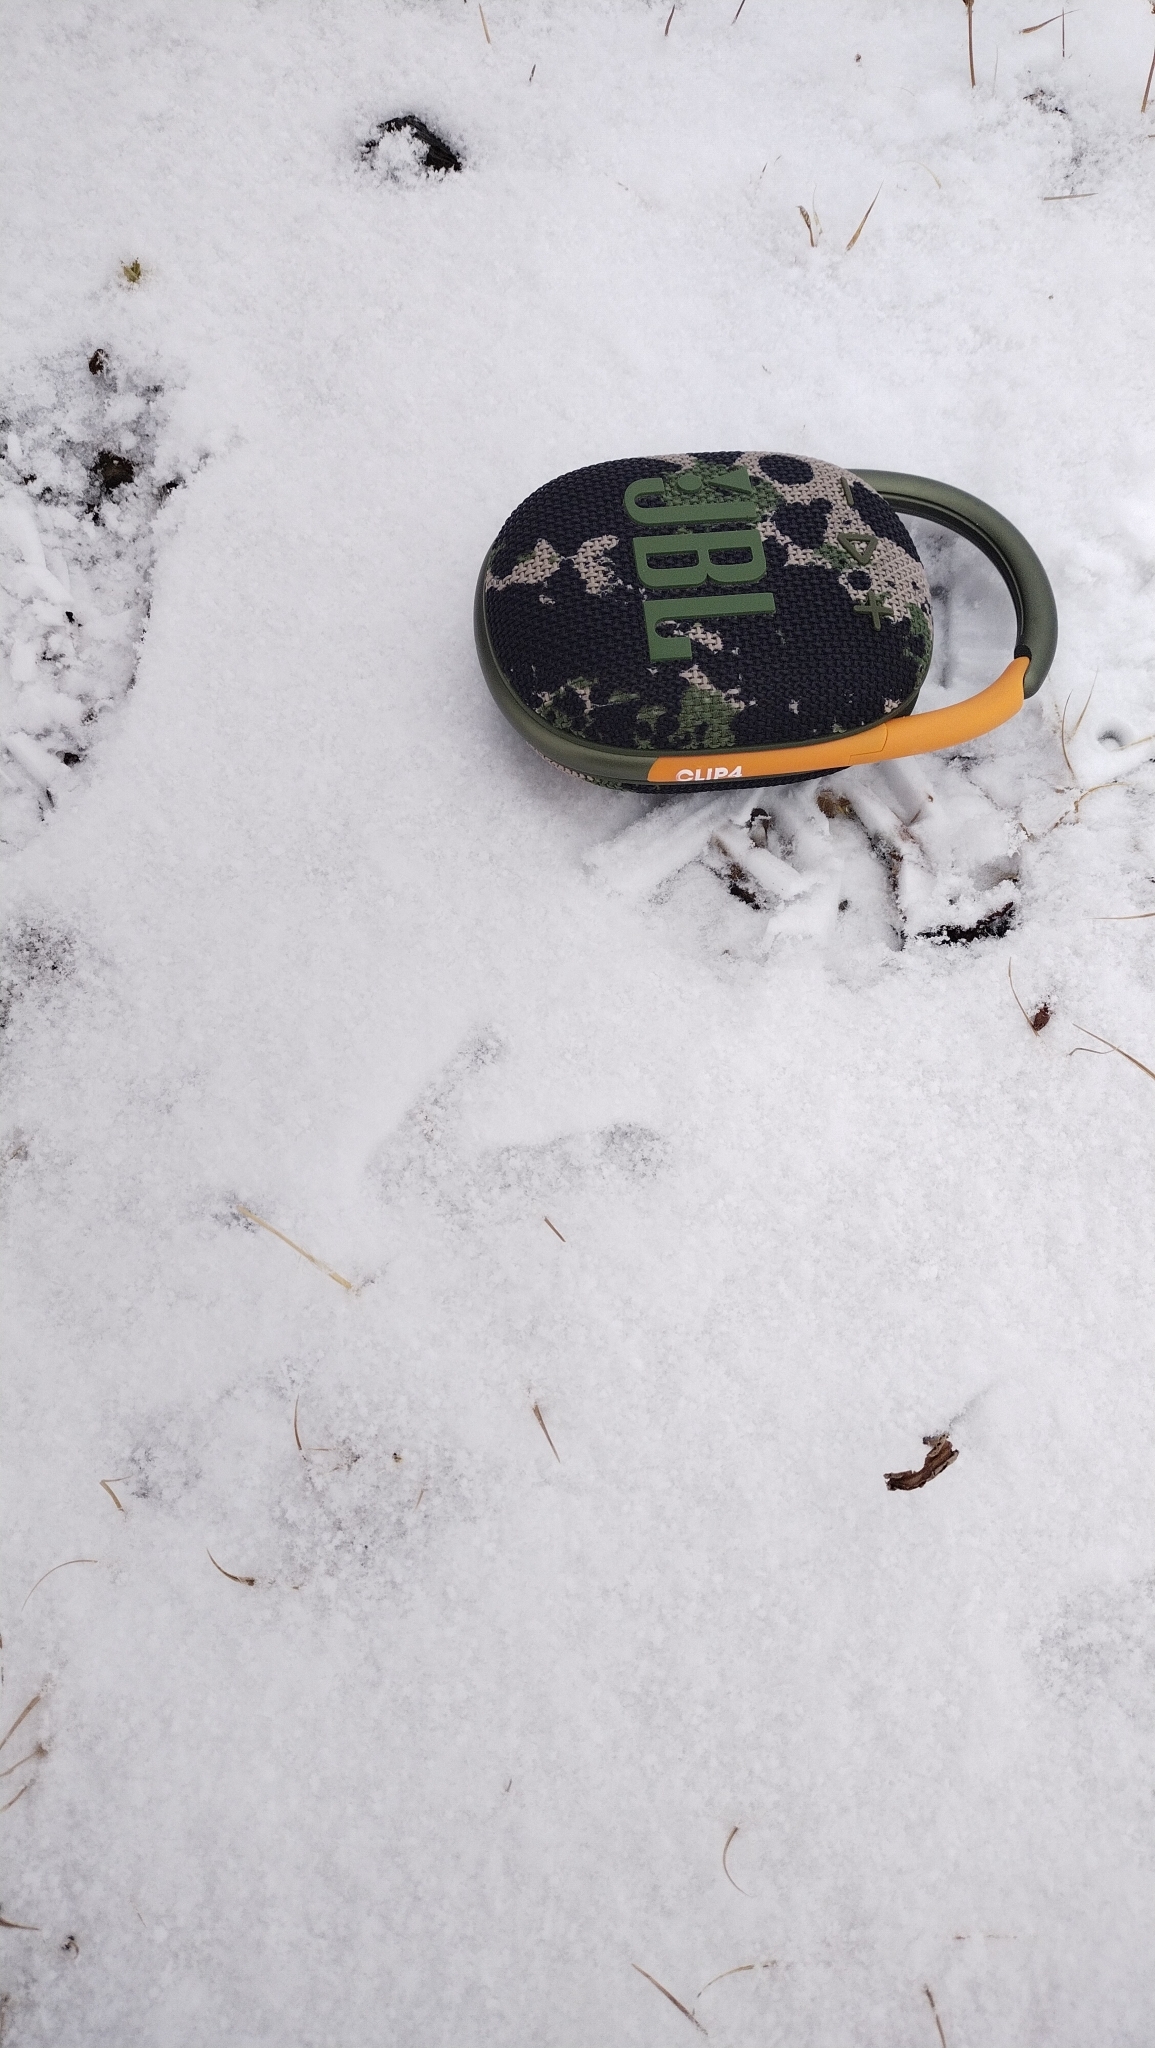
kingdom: Animalia
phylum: Chordata
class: Aves
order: Galliformes
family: Phasianidae
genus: Tetraogallus
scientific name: Tetraogallus altaicus
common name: Altai snowcock
